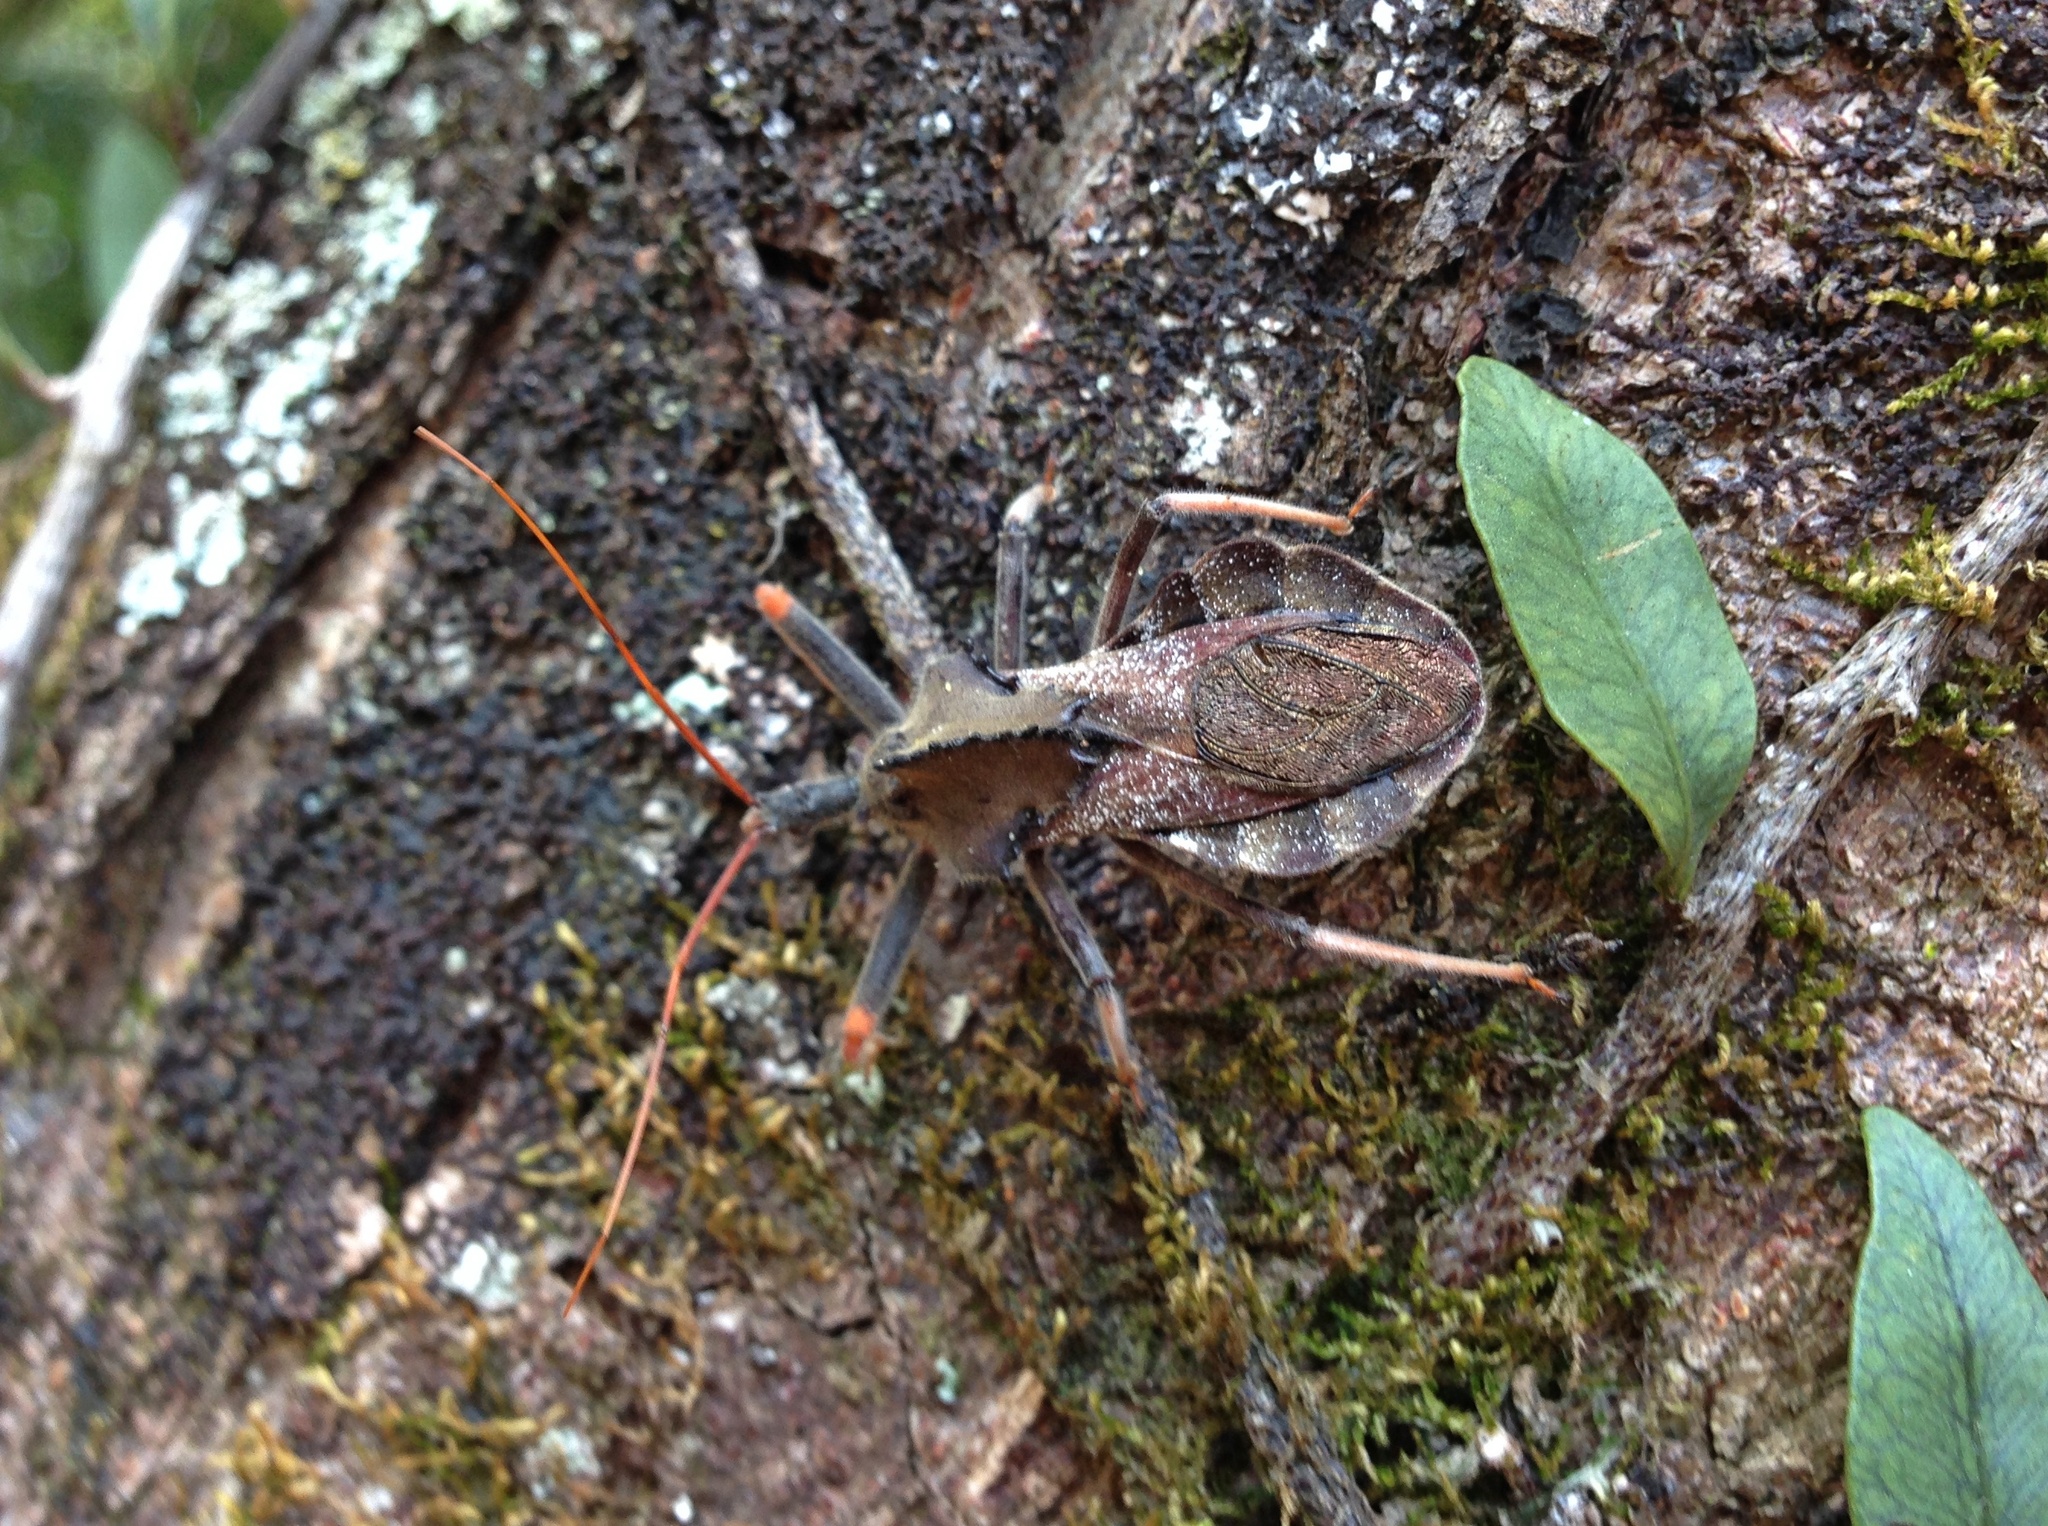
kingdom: Animalia
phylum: Arthropoda
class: Insecta
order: Hemiptera
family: Reduviidae
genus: Arilus
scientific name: Arilus carinatus
